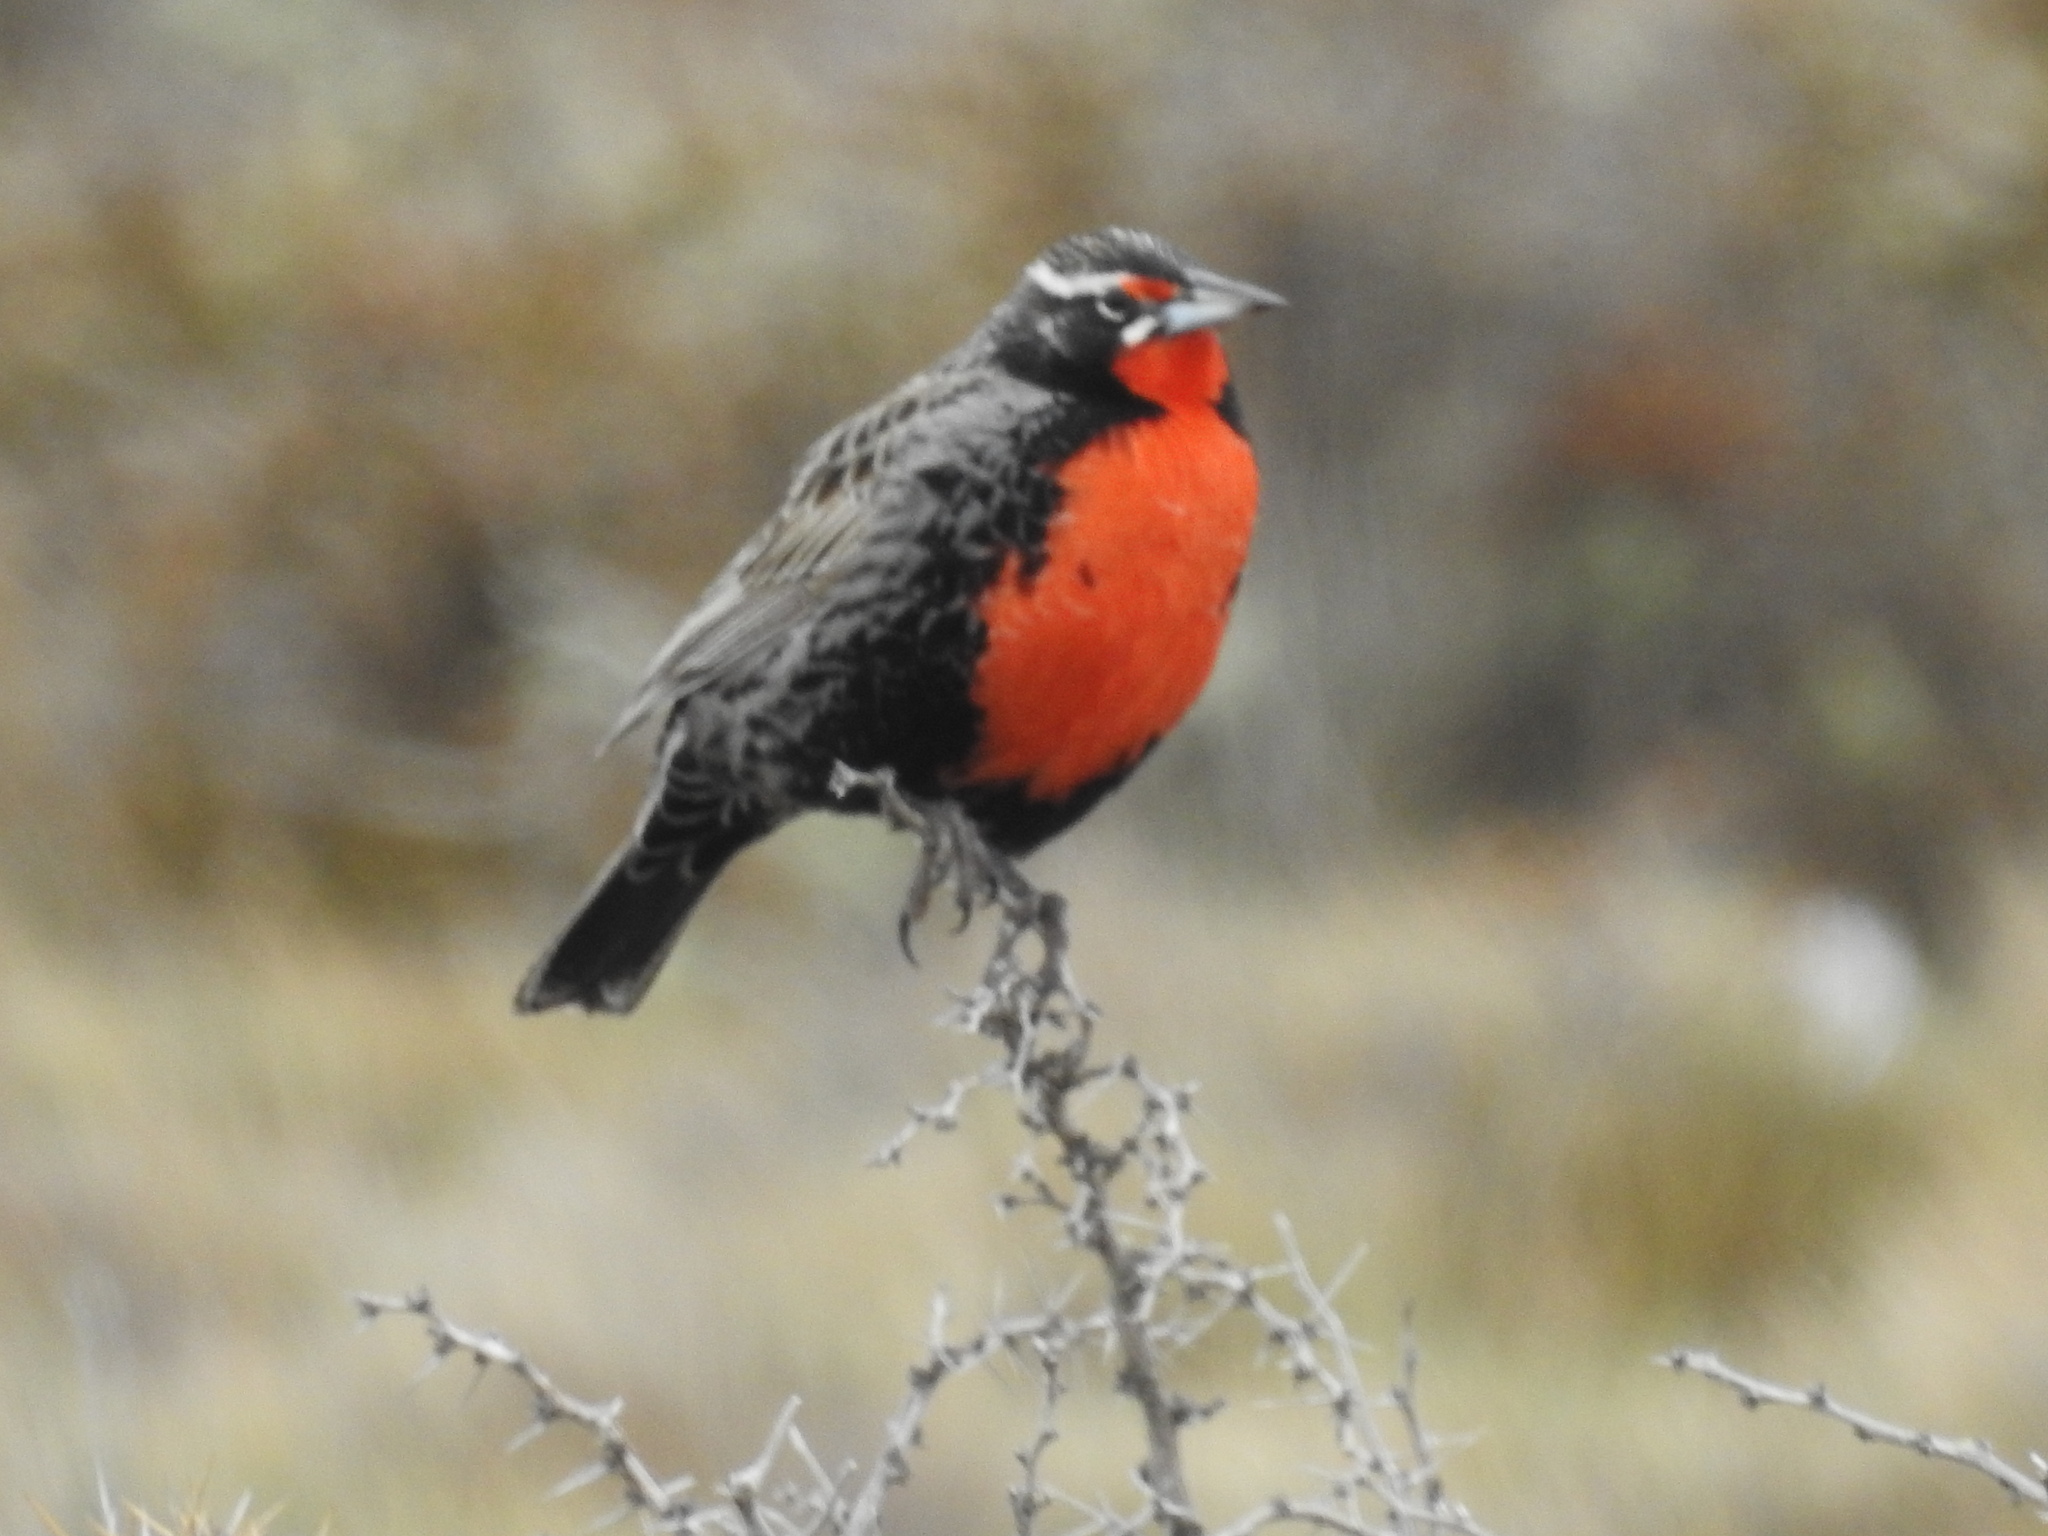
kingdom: Animalia
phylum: Chordata
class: Aves
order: Passeriformes
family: Icteridae
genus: Sturnella
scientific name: Sturnella loyca
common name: Long-tailed meadowlark
